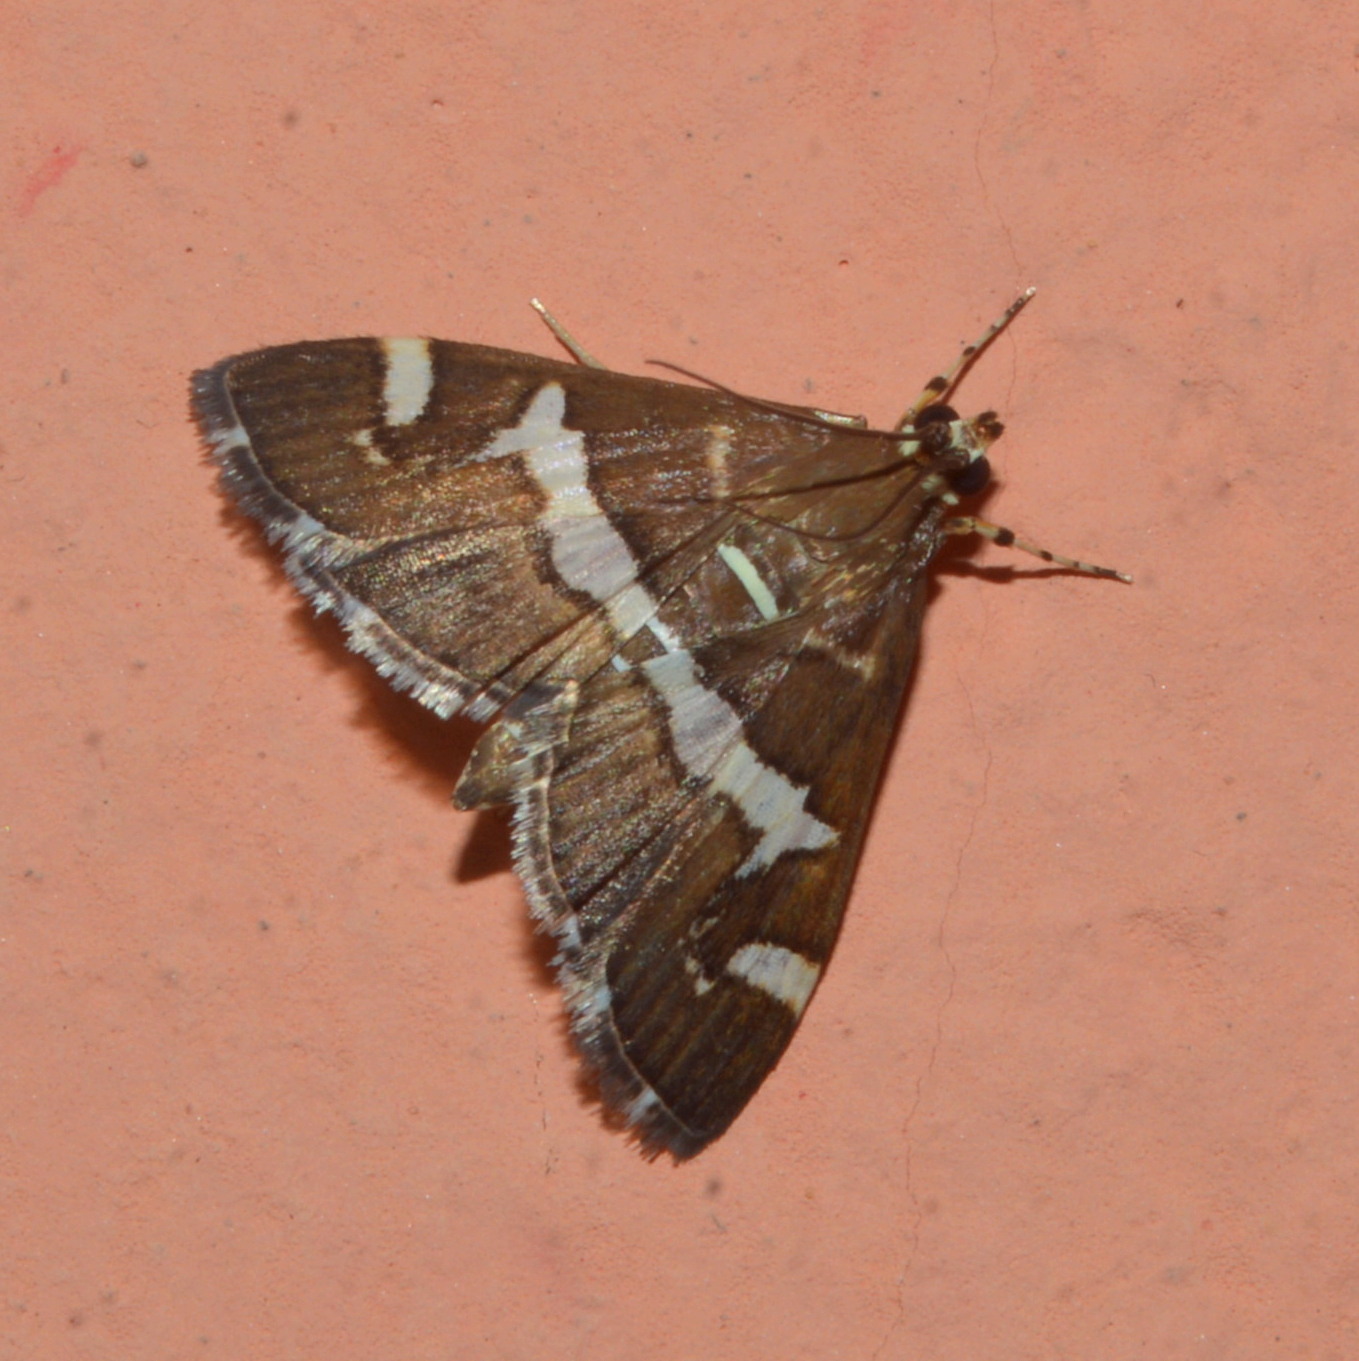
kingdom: Animalia
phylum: Arthropoda
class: Insecta
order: Lepidoptera
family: Crambidae
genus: Spoladea
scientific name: Spoladea recurvalis
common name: Beet webworm moth
